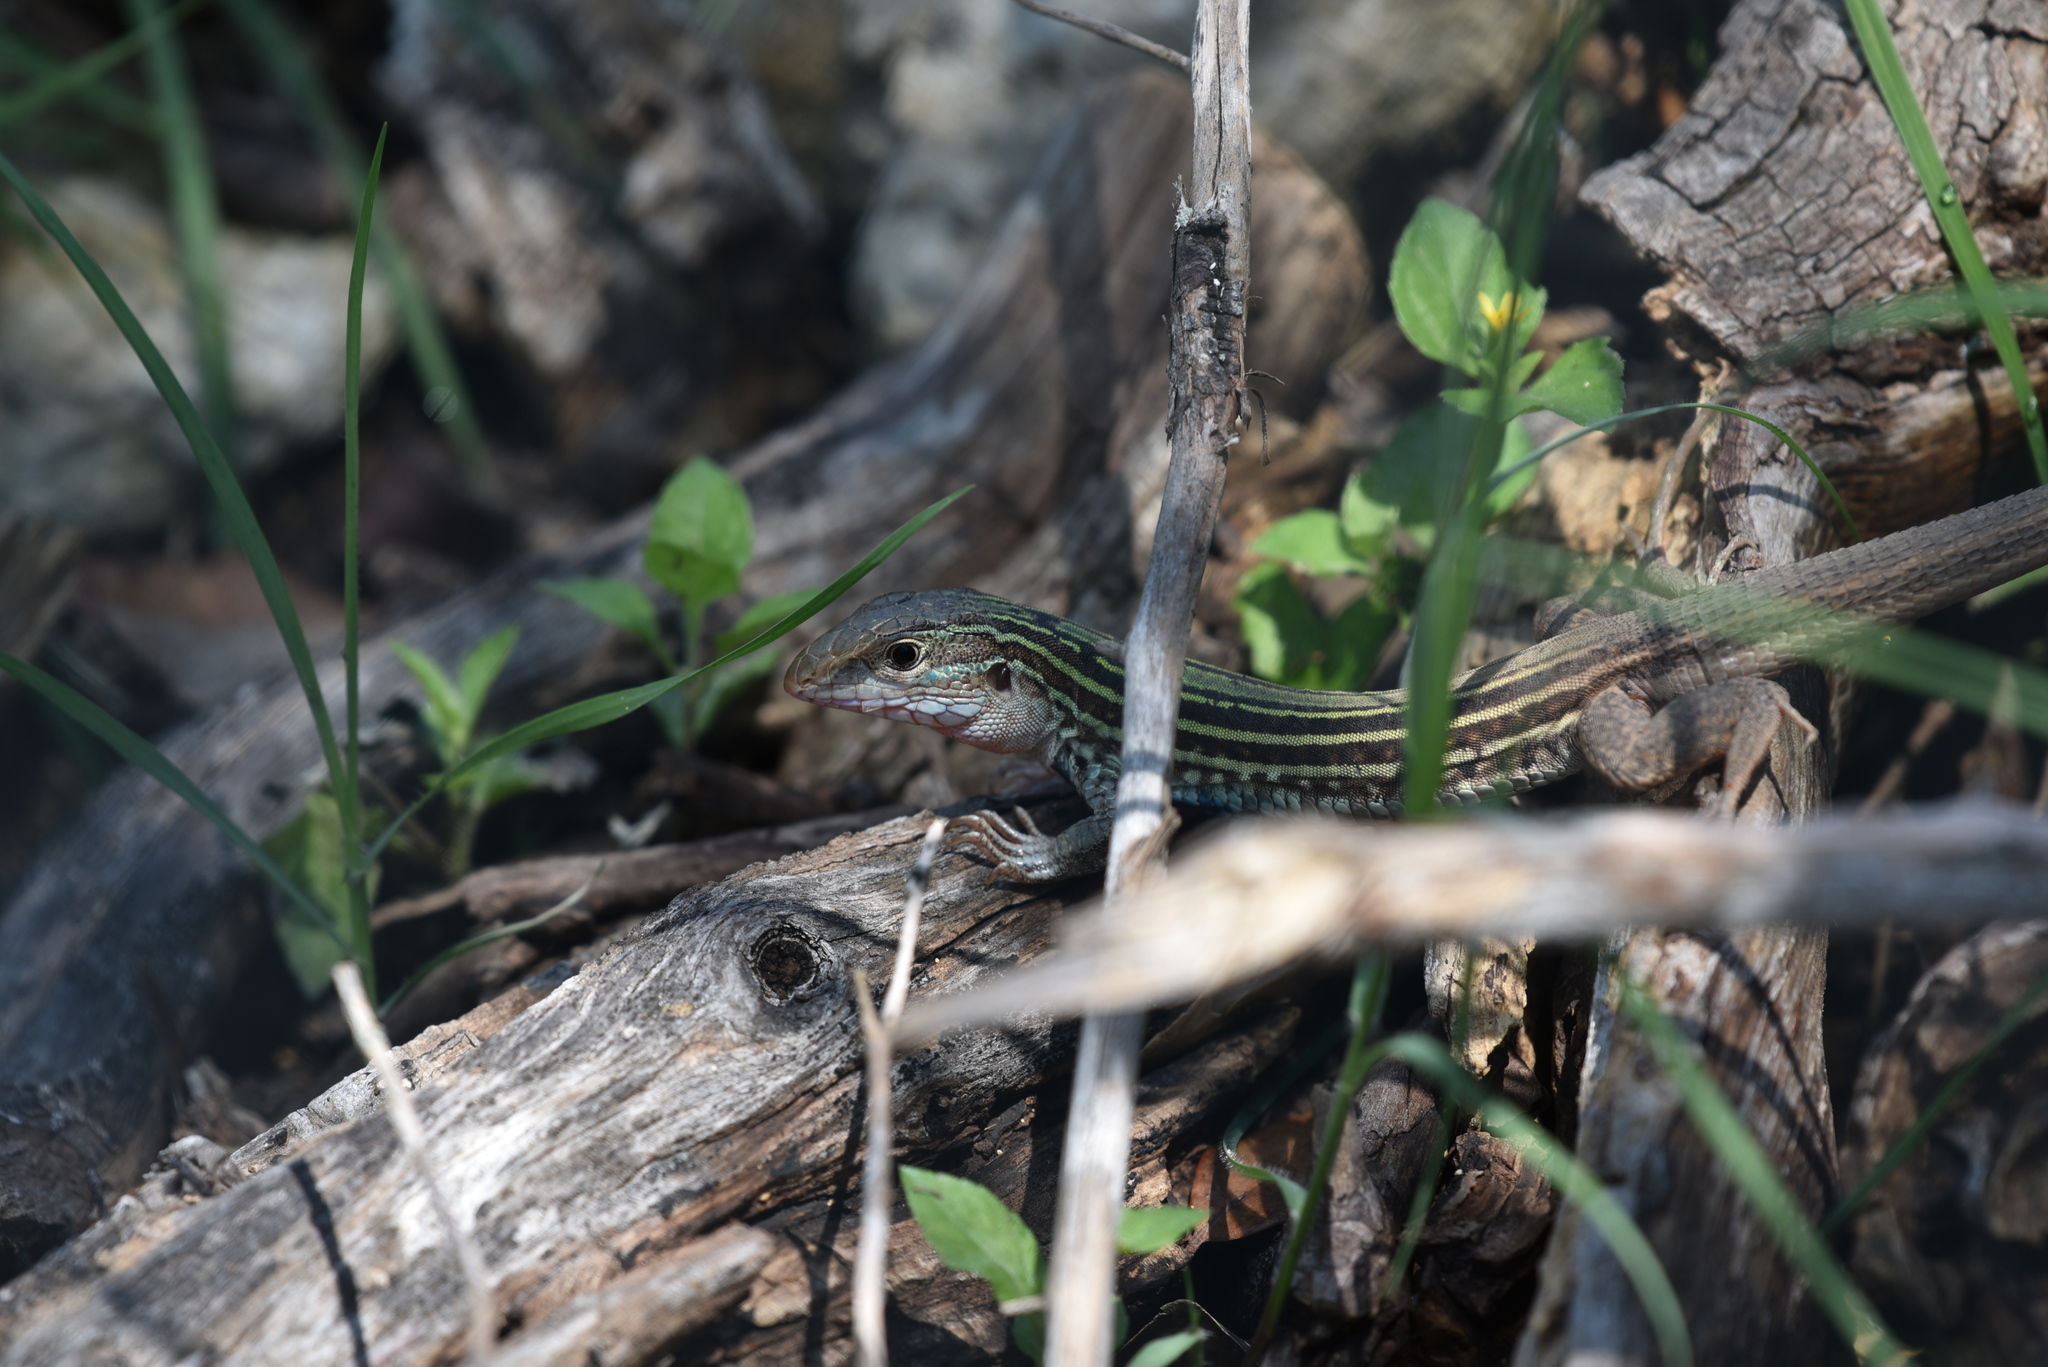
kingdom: Animalia
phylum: Chordata
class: Squamata
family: Teiidae
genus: Aspidoscelis
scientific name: Aspidoscelis gularis
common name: Eastern spotted whiptail
